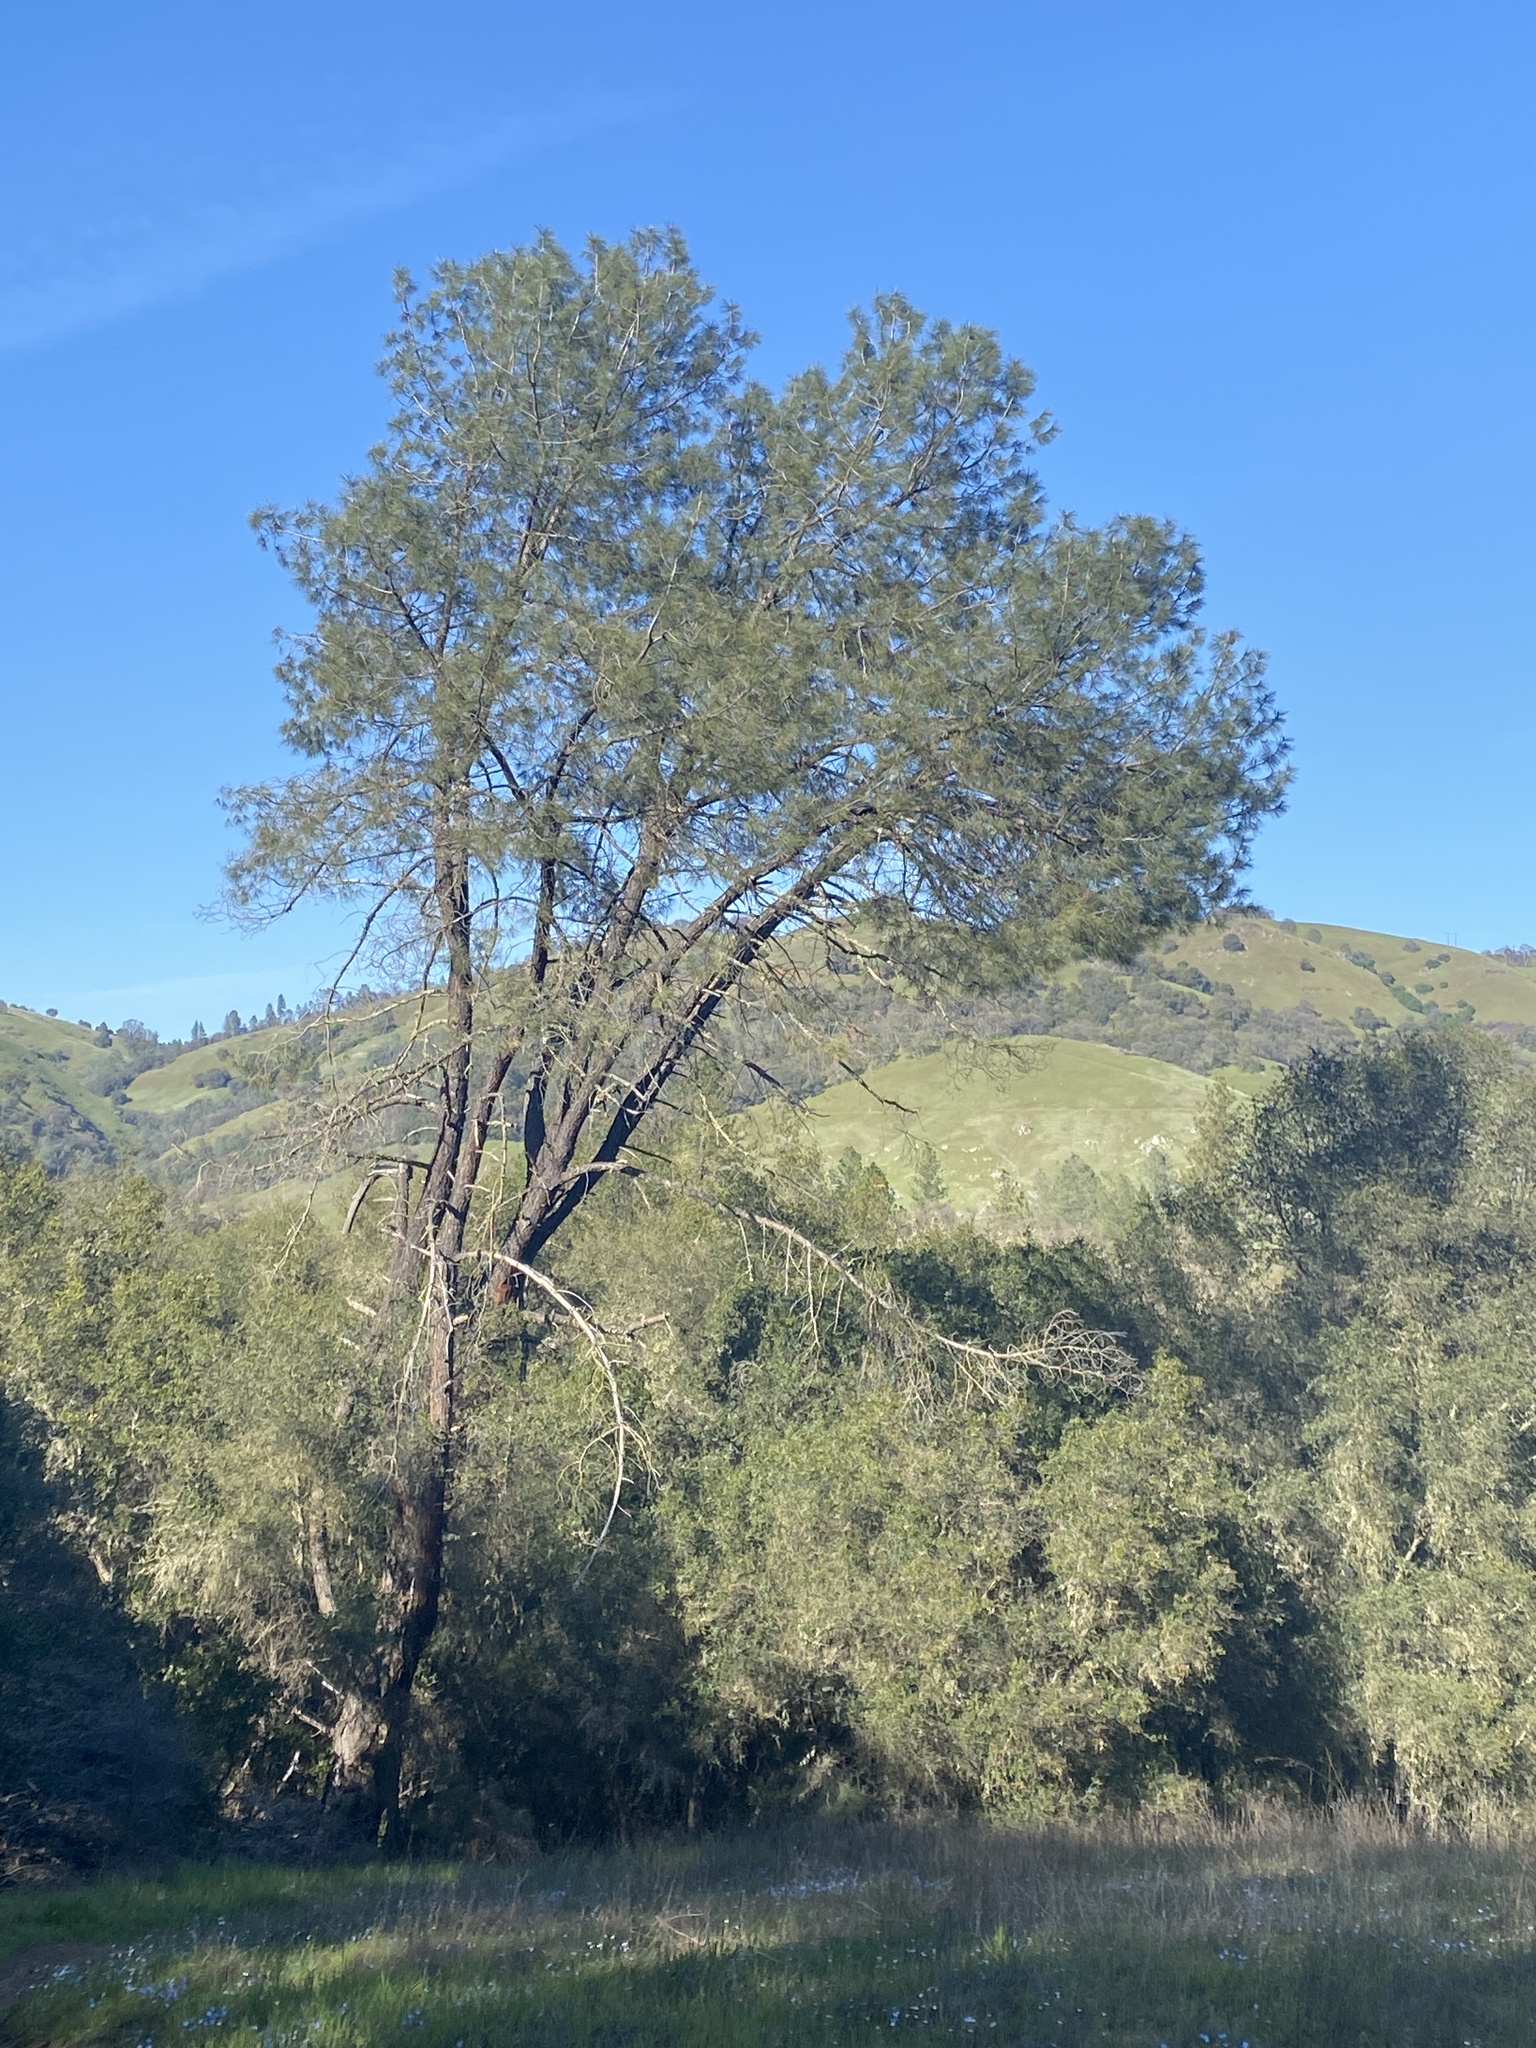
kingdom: Plantae
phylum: Tracheophyta
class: Pinopsida
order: Pinales
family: Pinaceae
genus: Pinus
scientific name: Pinus sabiniana
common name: Bull pine
